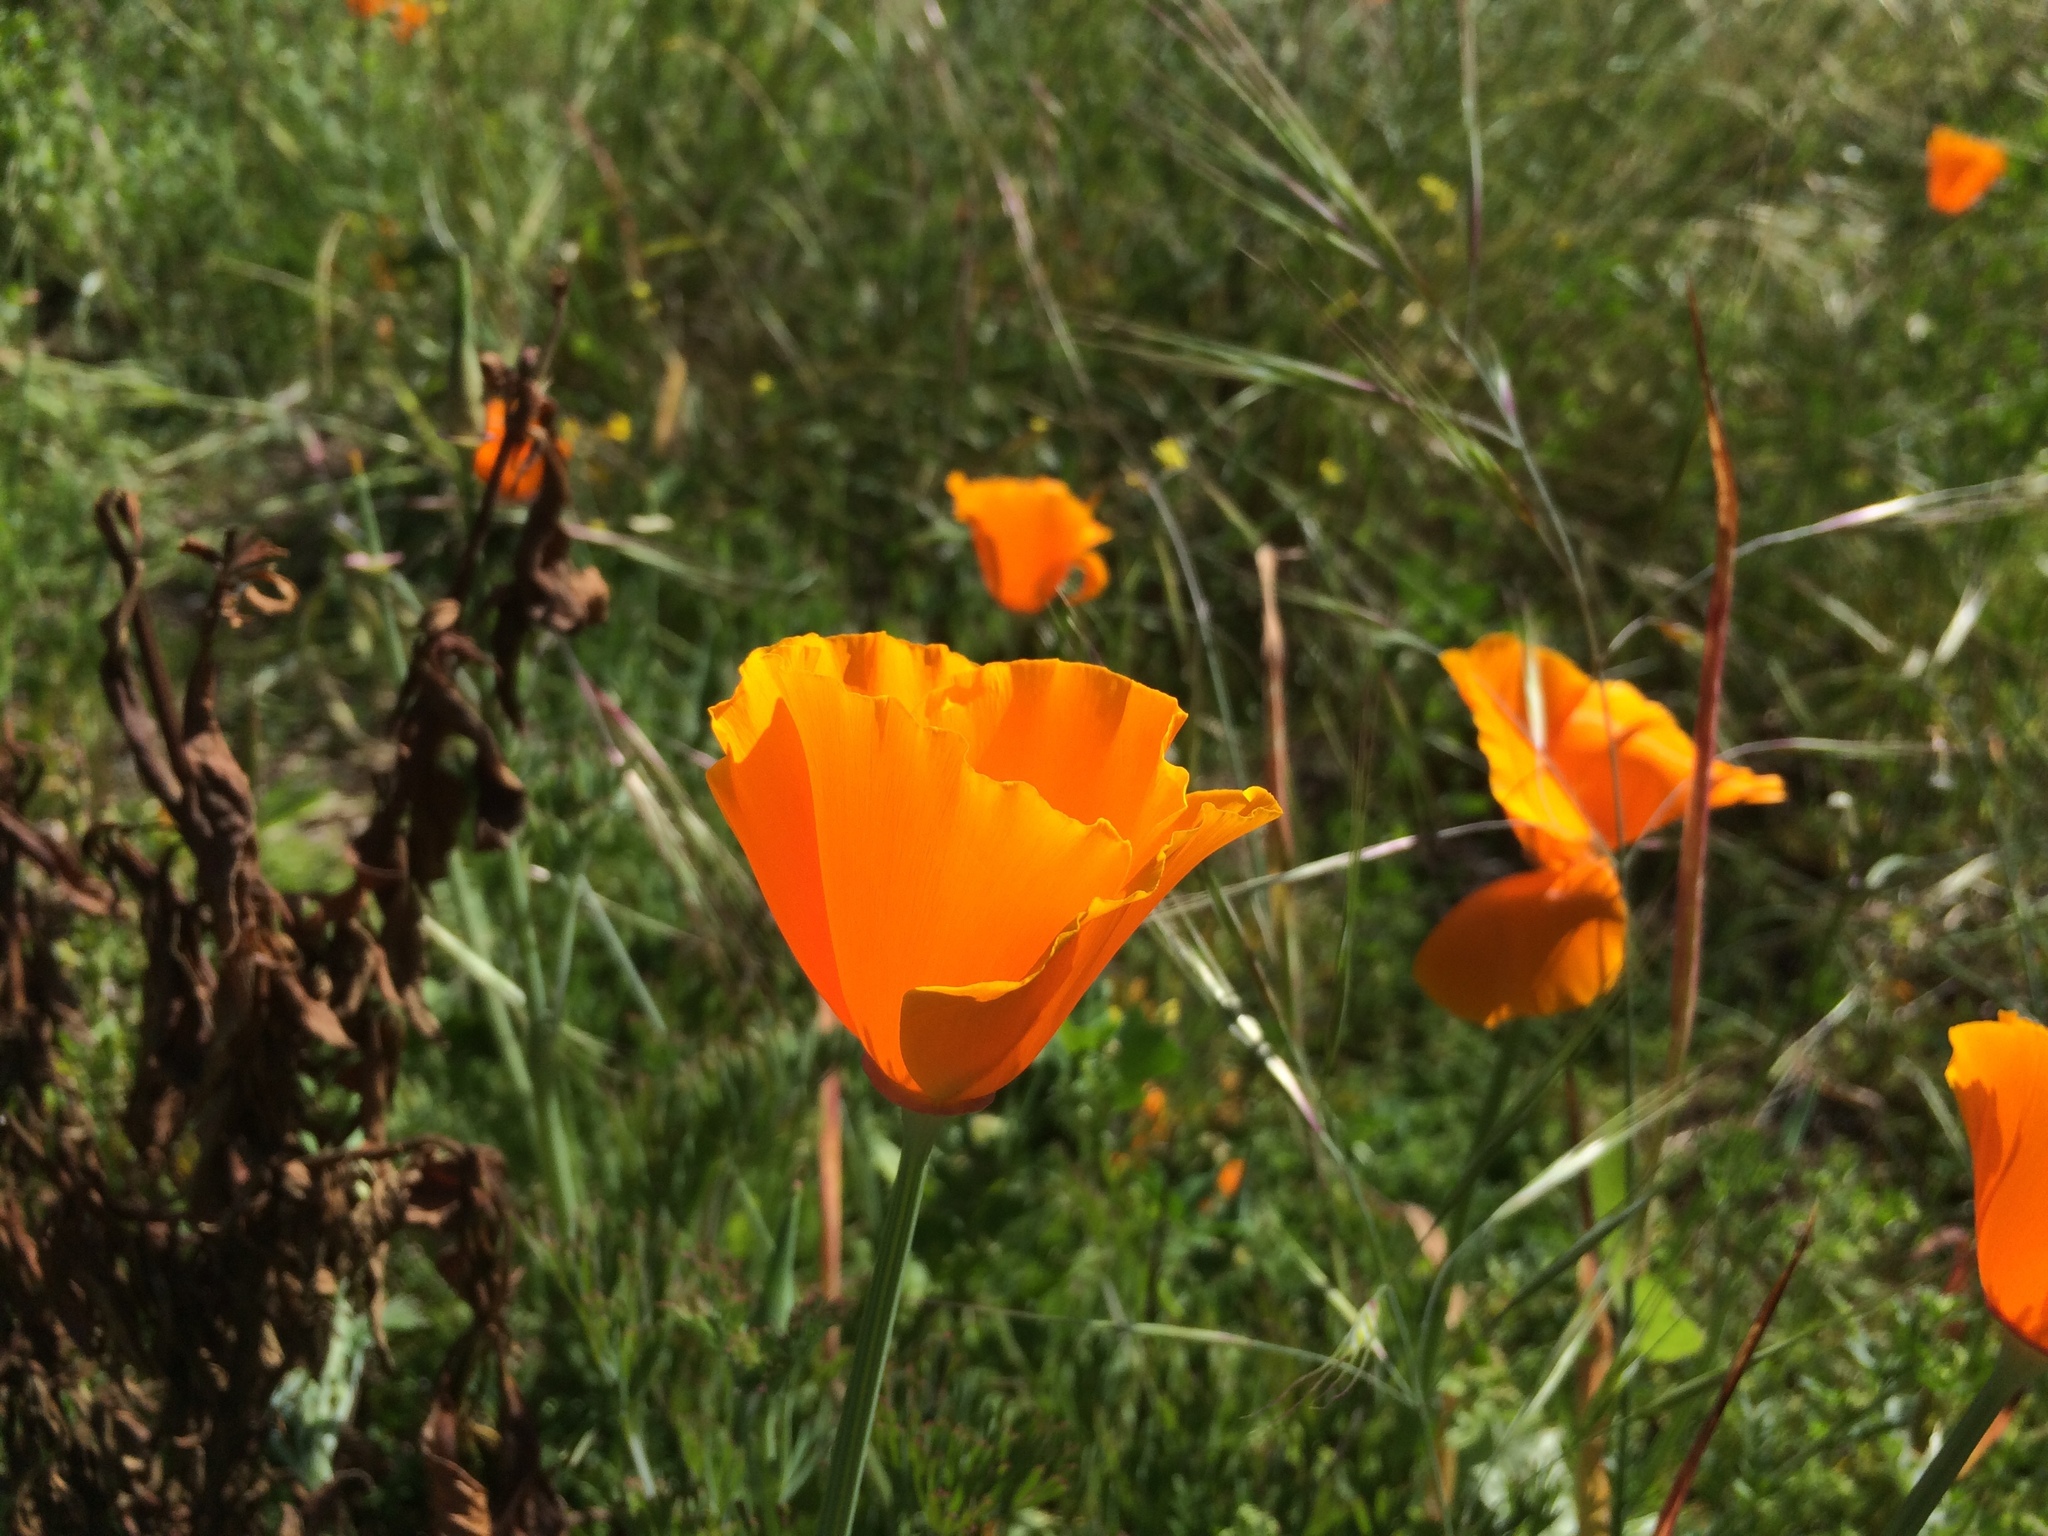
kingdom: Plantae
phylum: Tracheophyta
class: Magnoliopsida
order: Ranunculales
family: Papaveraceae
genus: Eschscholzia
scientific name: Eschscholzia californica
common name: California poppy
